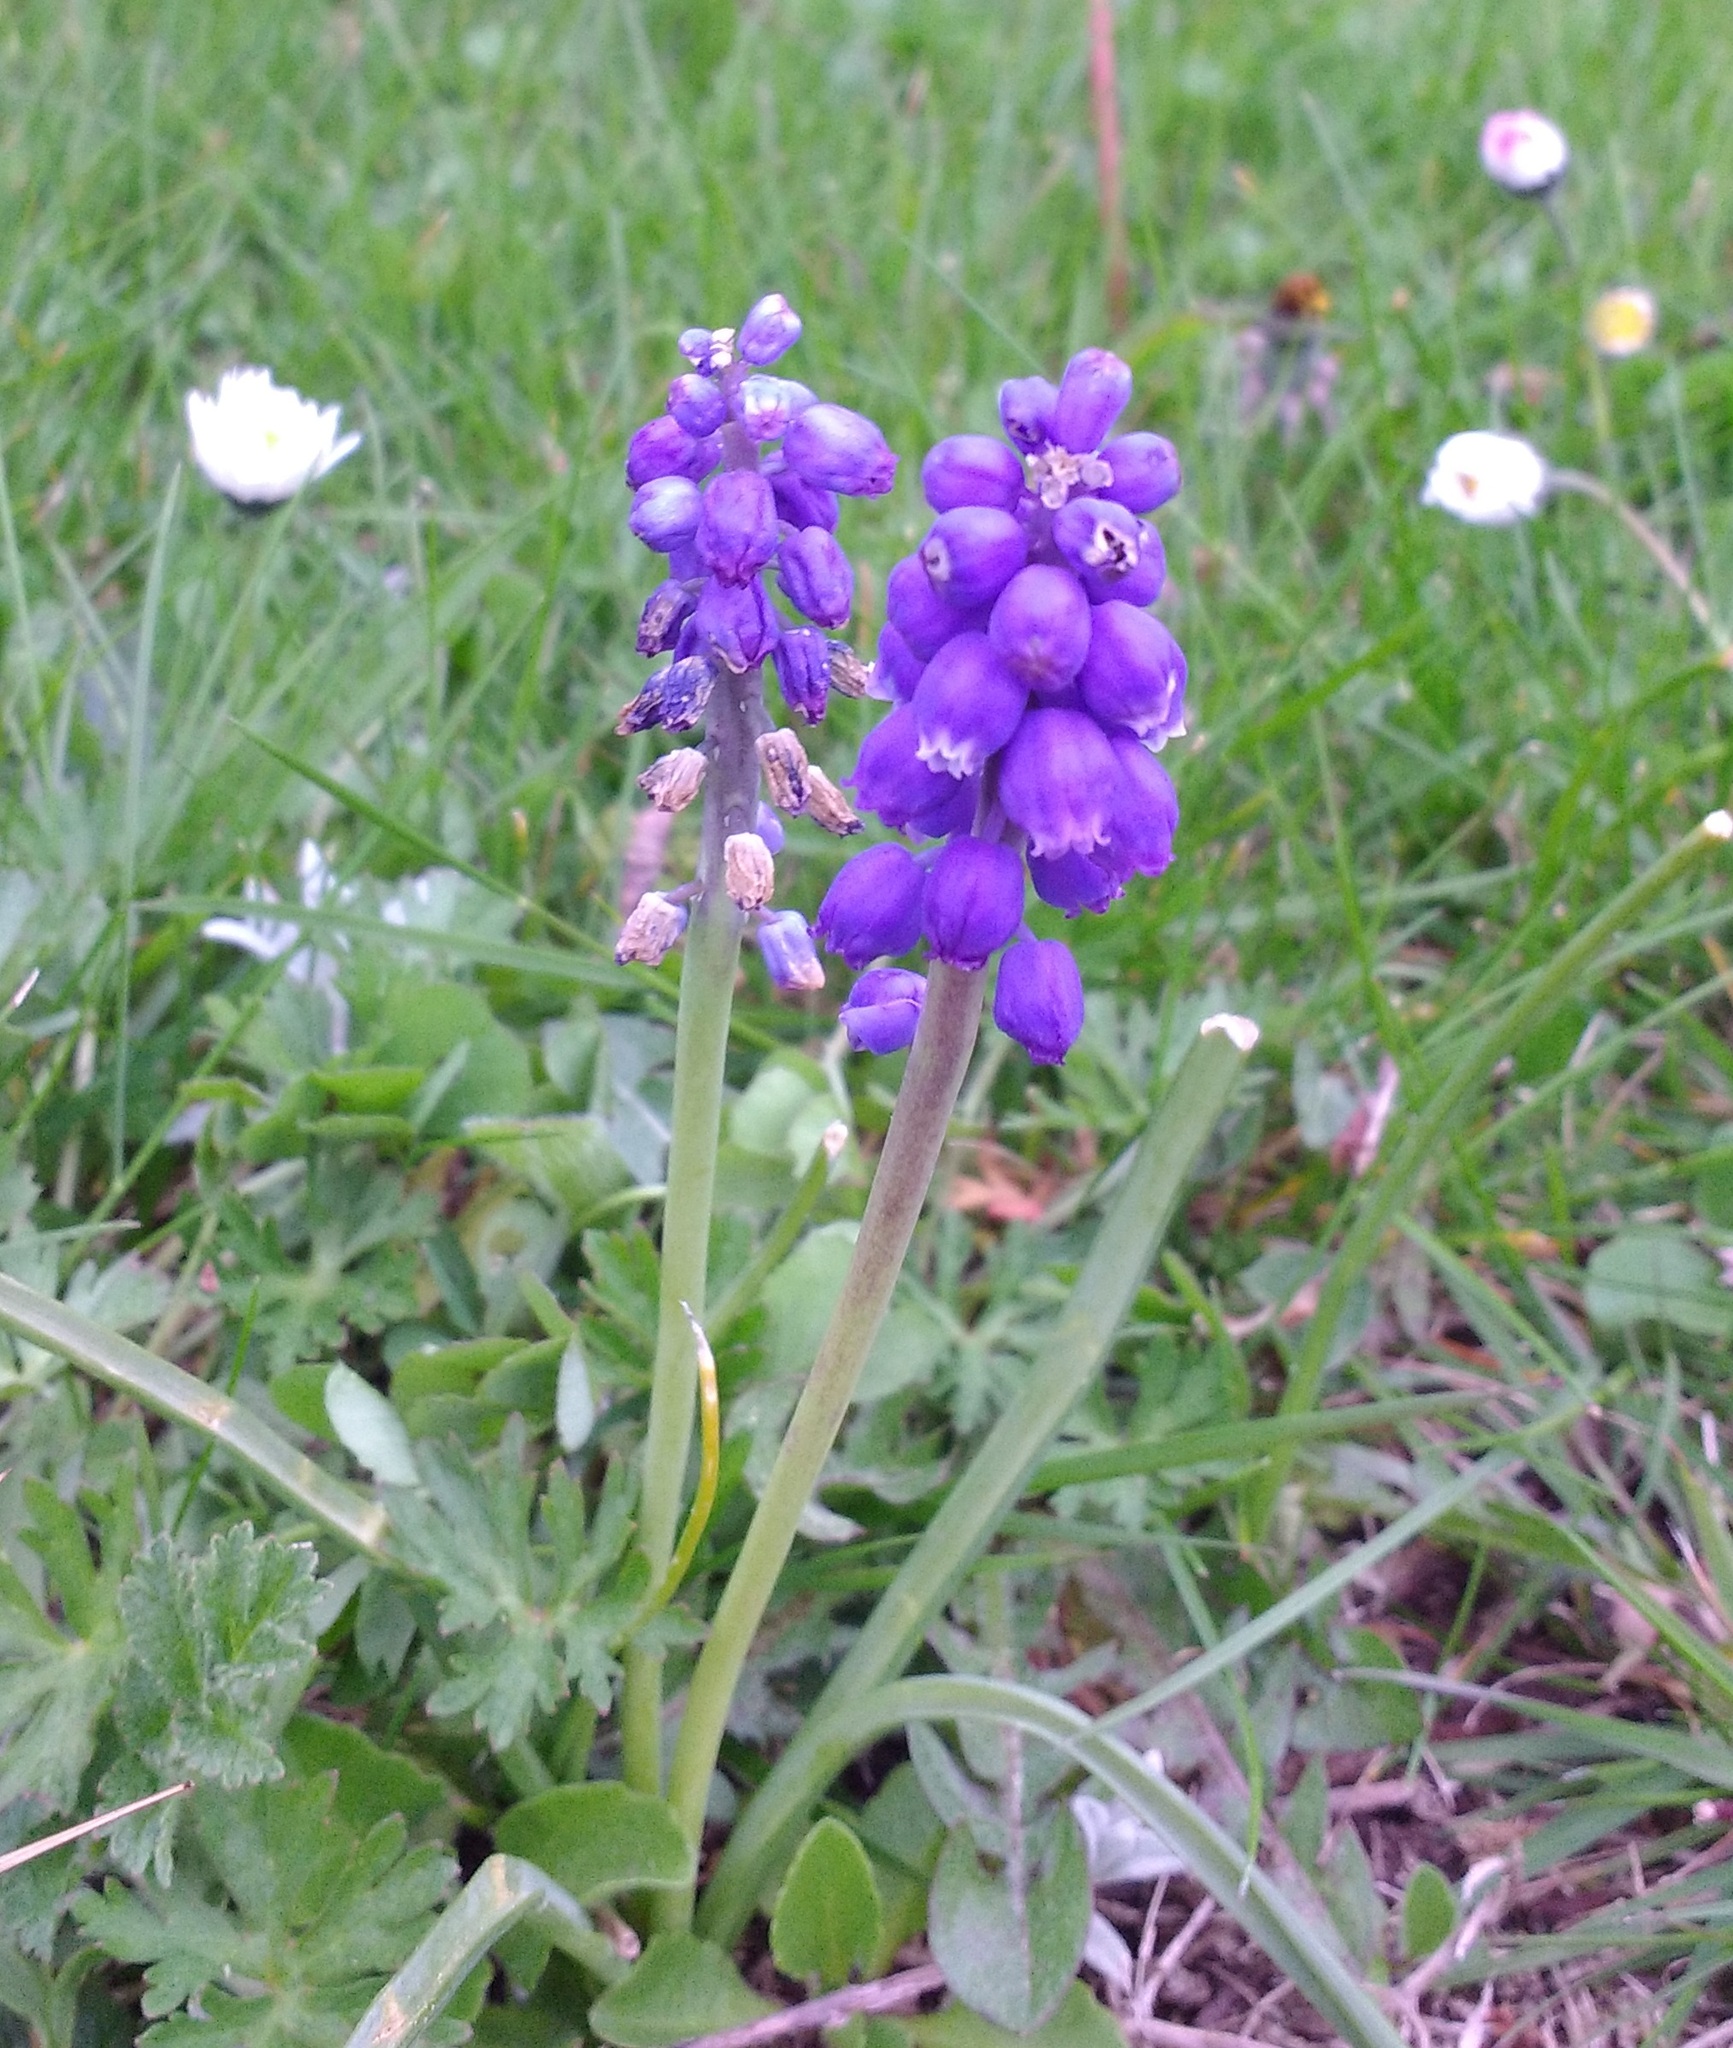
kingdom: Plantae
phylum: Tracheophyta
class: Liliopsida
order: Asparagales
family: Asparagaceae
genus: Muscari
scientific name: Muscari armeniacum
